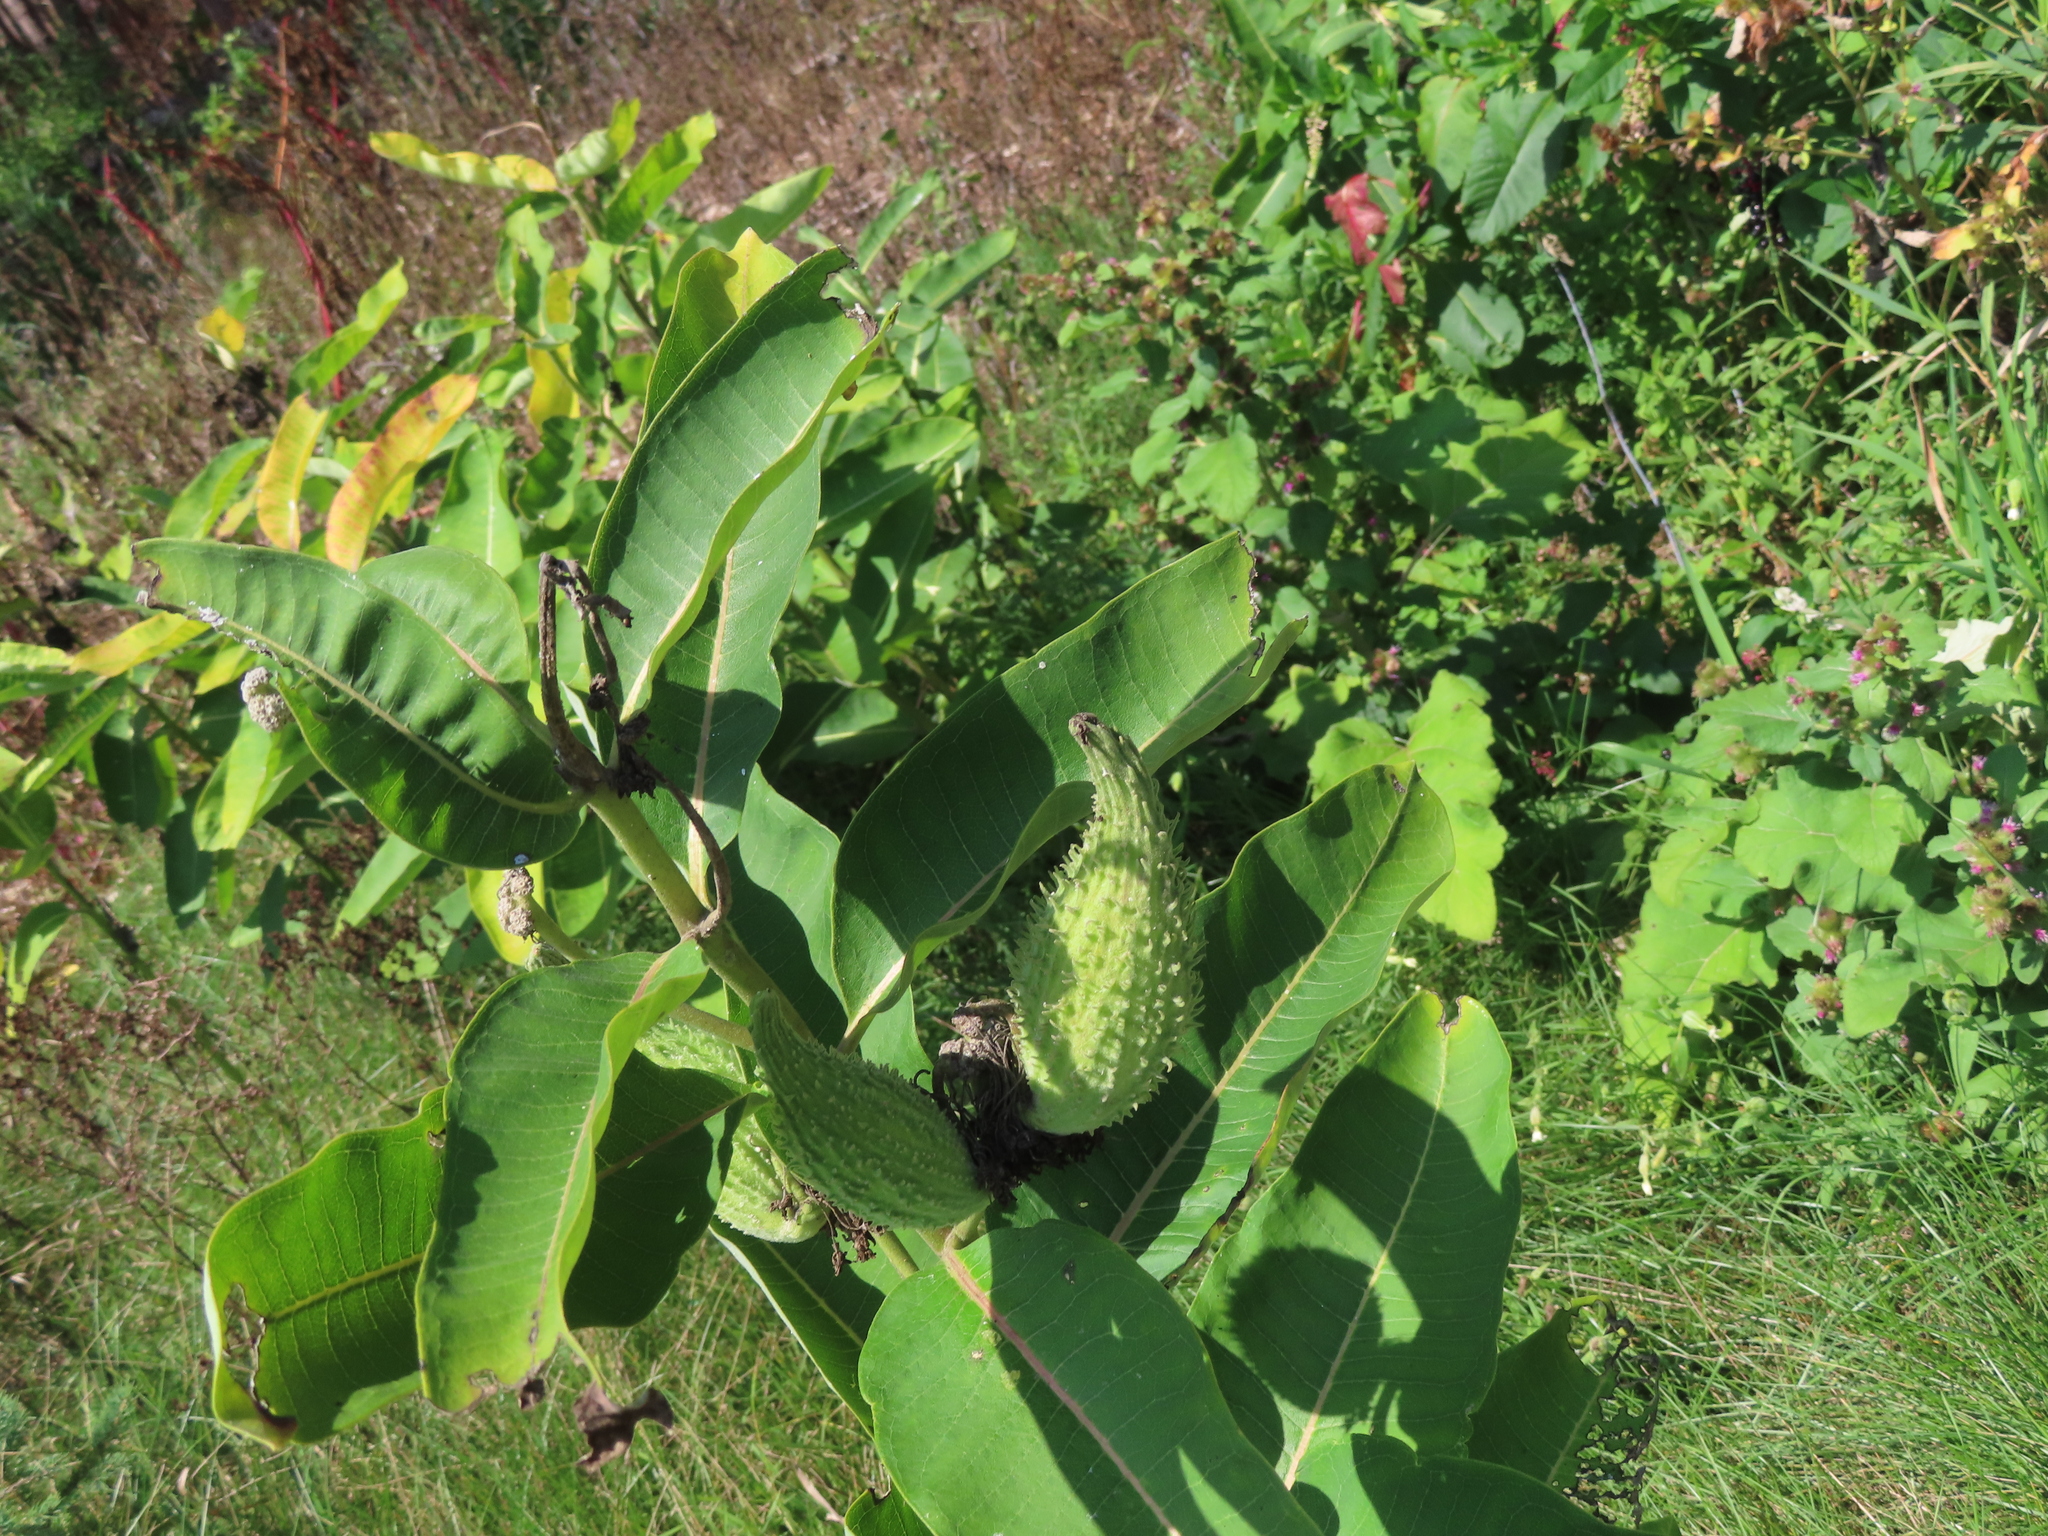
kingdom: Plantae
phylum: Tracheophyta
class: Magnoliopsida
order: Gentianales
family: Apocynaceae
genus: Asclepias
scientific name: Asclepias syriaca
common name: Common milkweed
